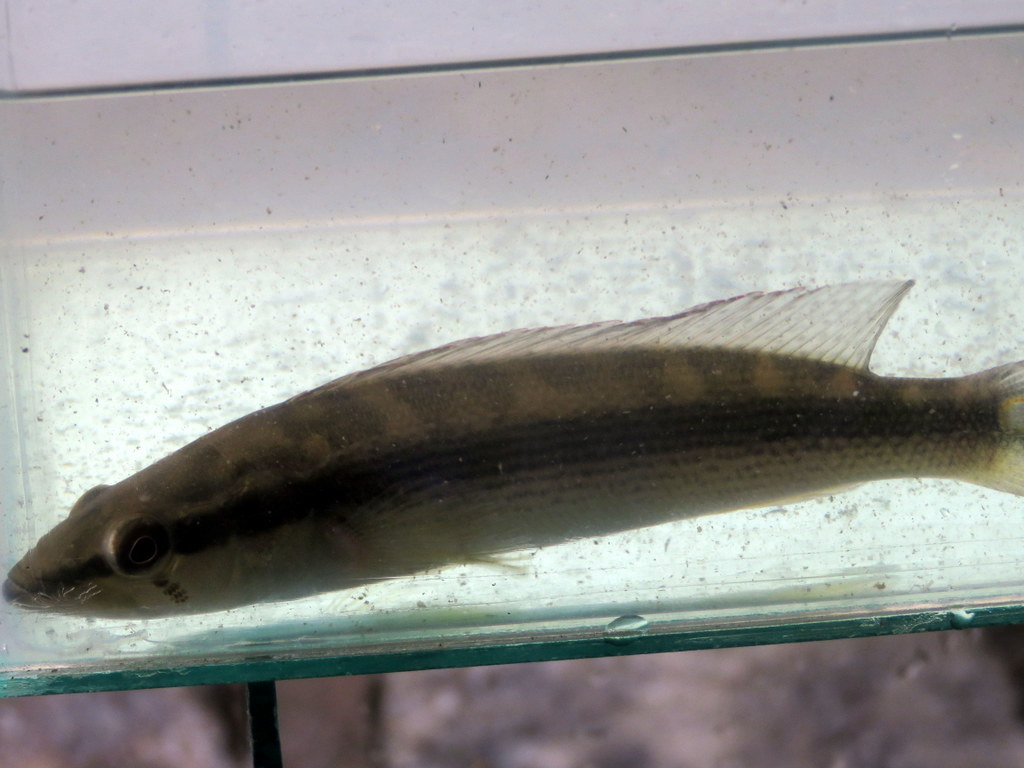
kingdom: Animalia
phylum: Chordata
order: Perciformes
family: Cichlidae
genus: Crenicichla
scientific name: Crenicichla scottii
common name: Pike cichlid
